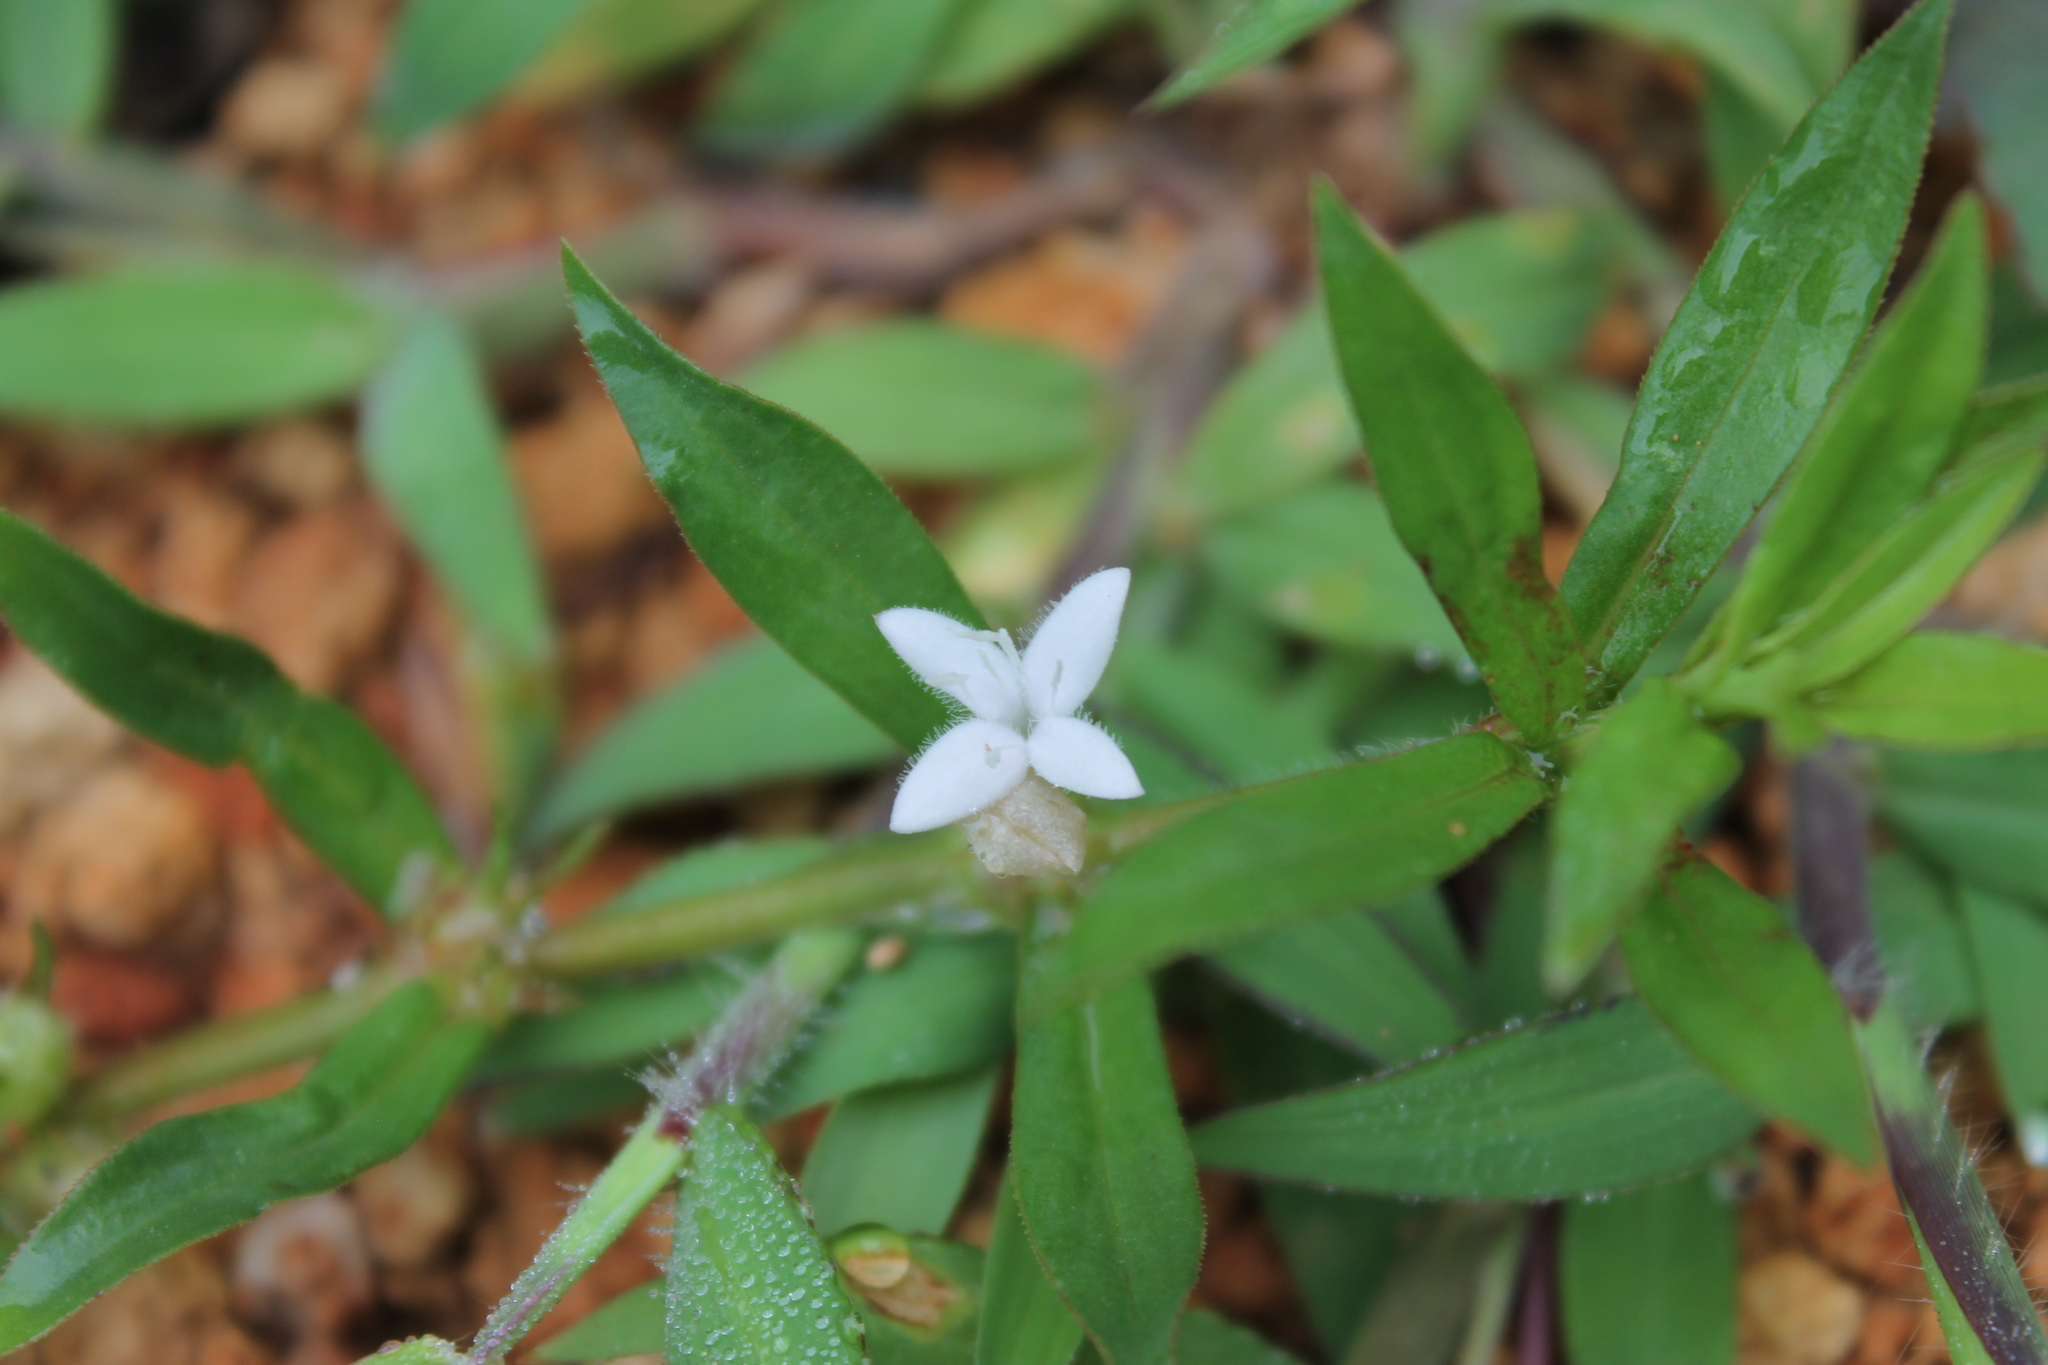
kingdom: Plantae
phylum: Tracheophyta
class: Magnoliopsida
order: Gentianales
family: Rubiaceae
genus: Diodia
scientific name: Diodia virginiana
